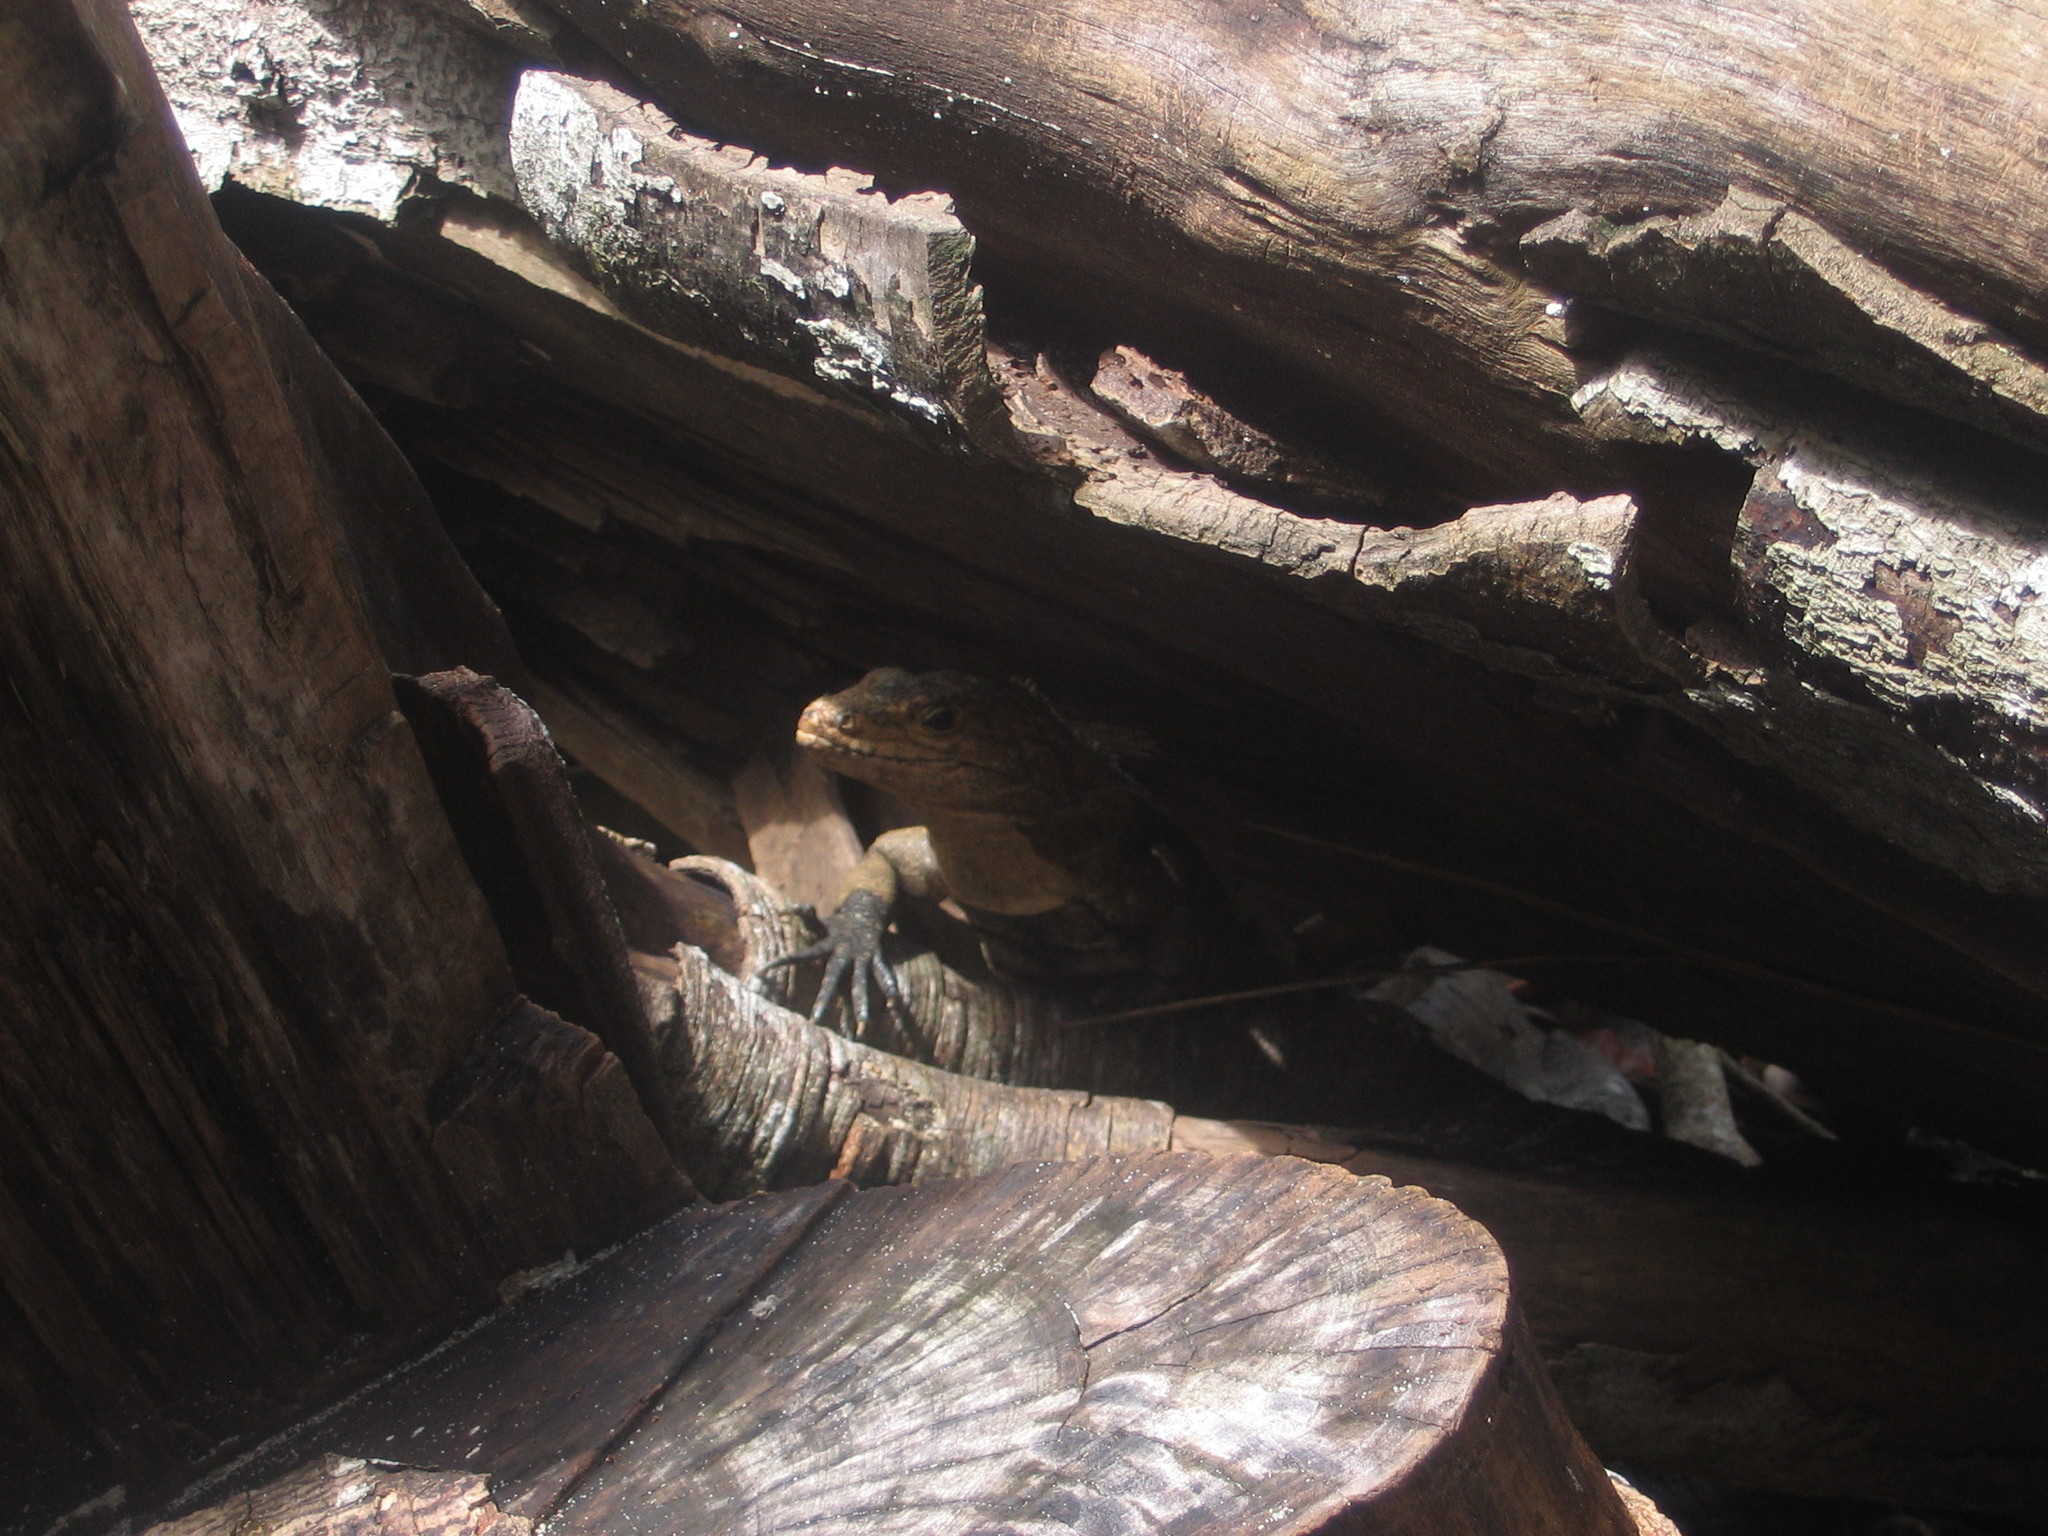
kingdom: Animalia
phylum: Chordata
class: Squamata
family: Iguanidae
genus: Ctenosaura
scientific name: Ctenosaura similis
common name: Black spiny-tailed iguana
